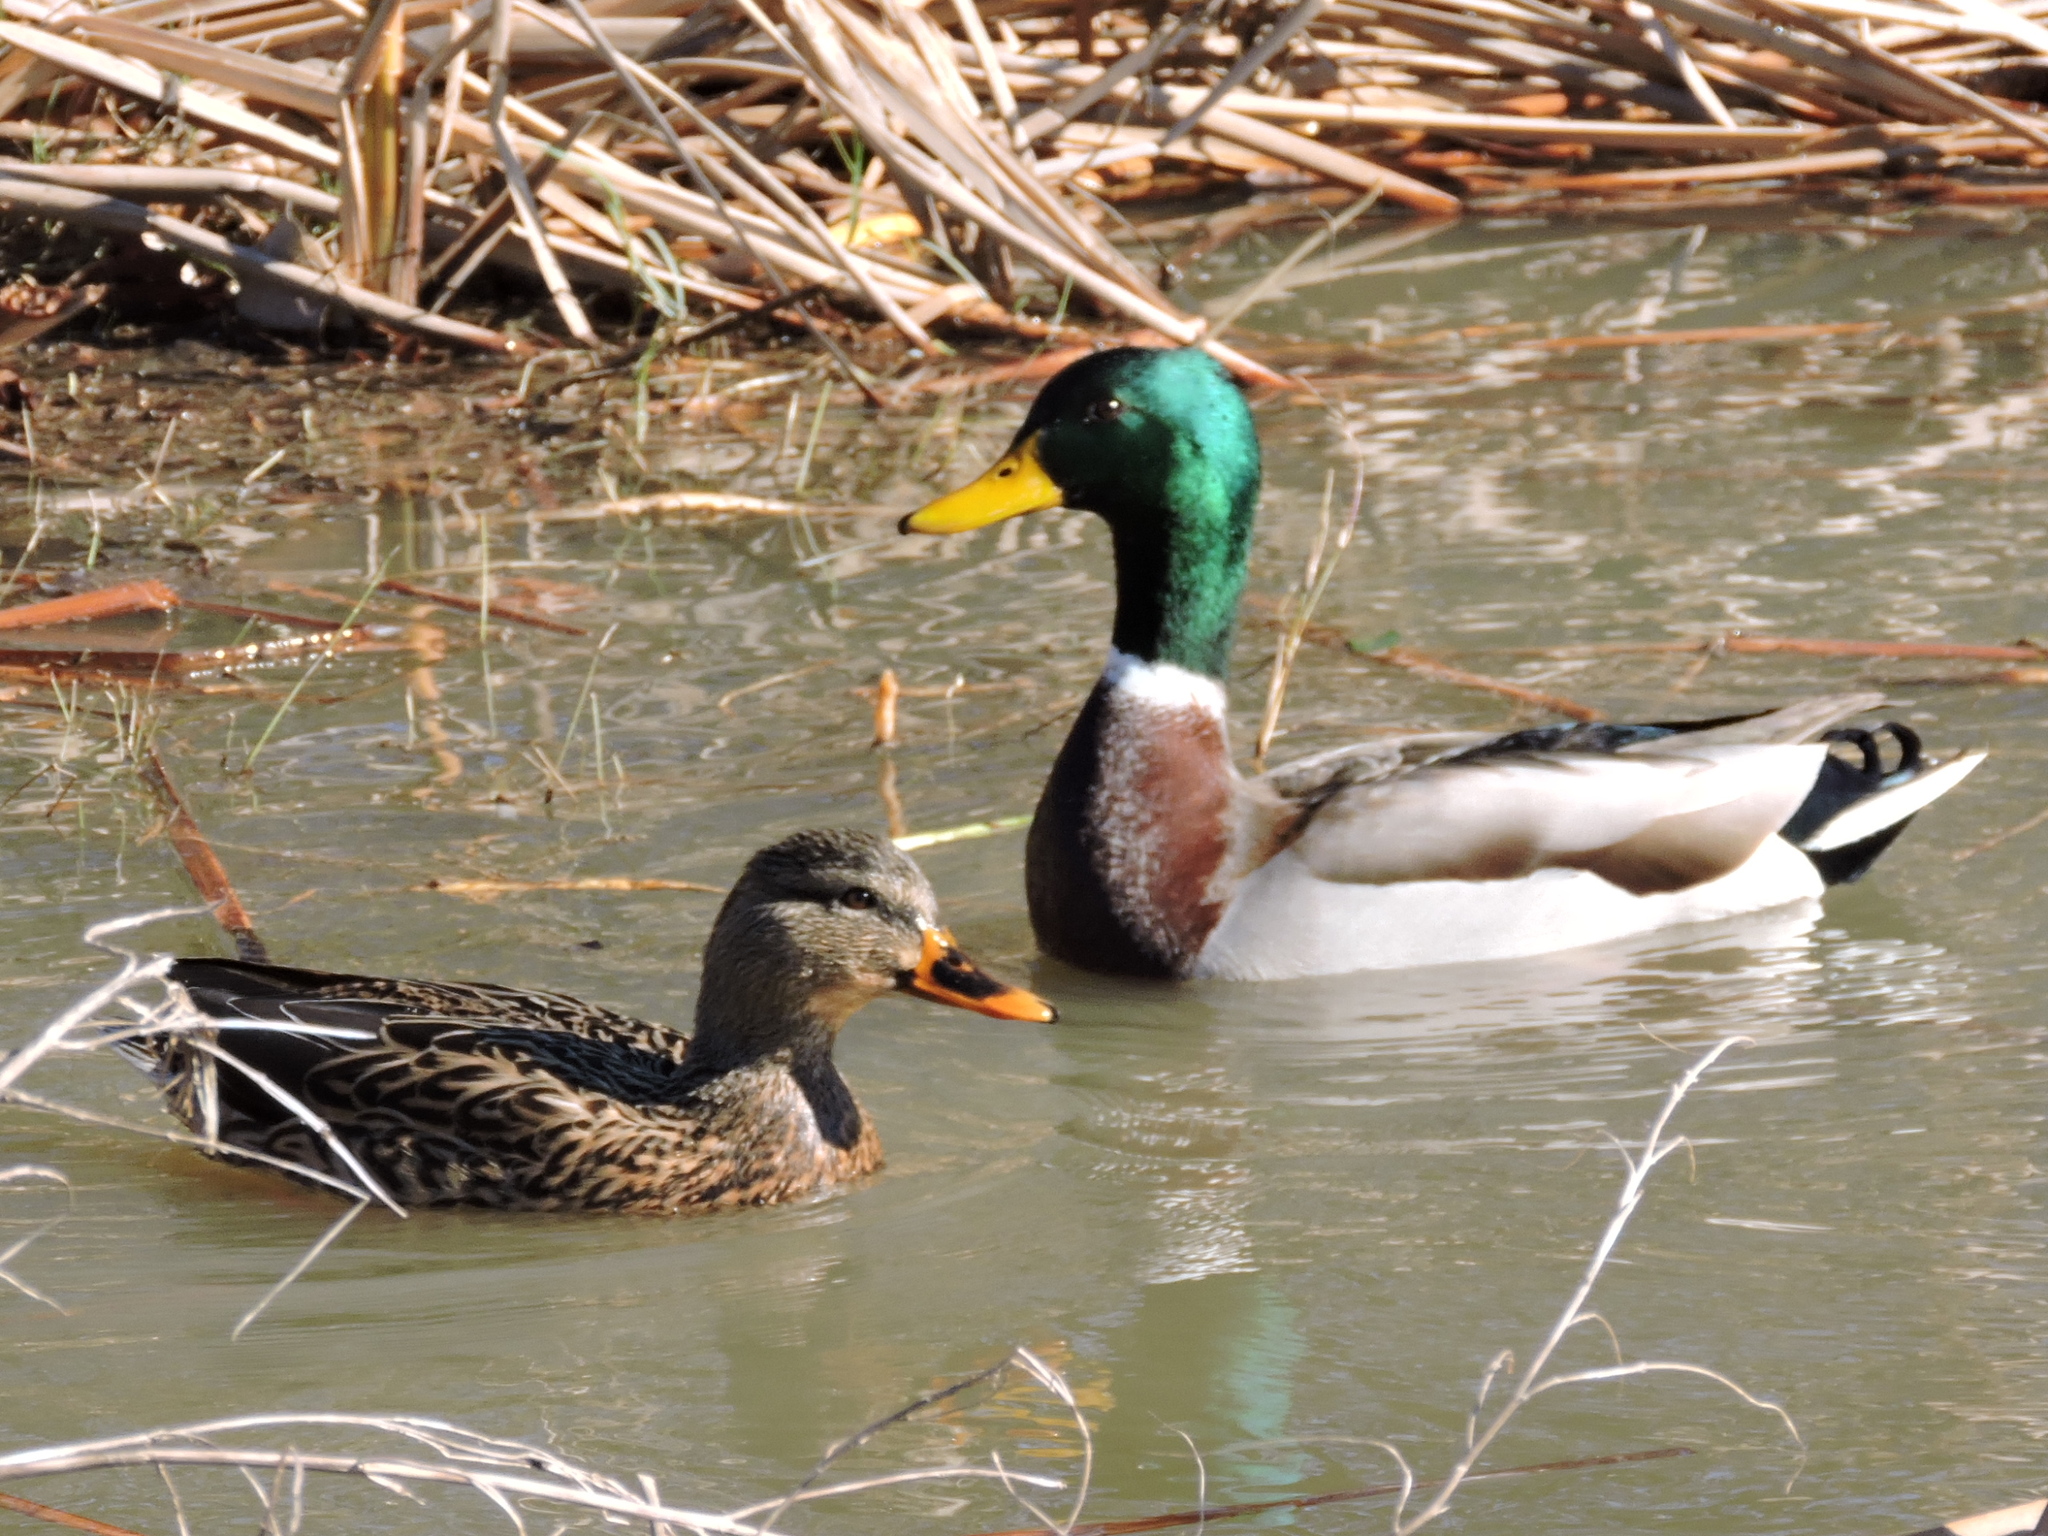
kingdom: Animalia
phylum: Chordata
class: Aves
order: Anseriformes
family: Anatidae
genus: Anas
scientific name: Anas platyrhynchos
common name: Mallard
